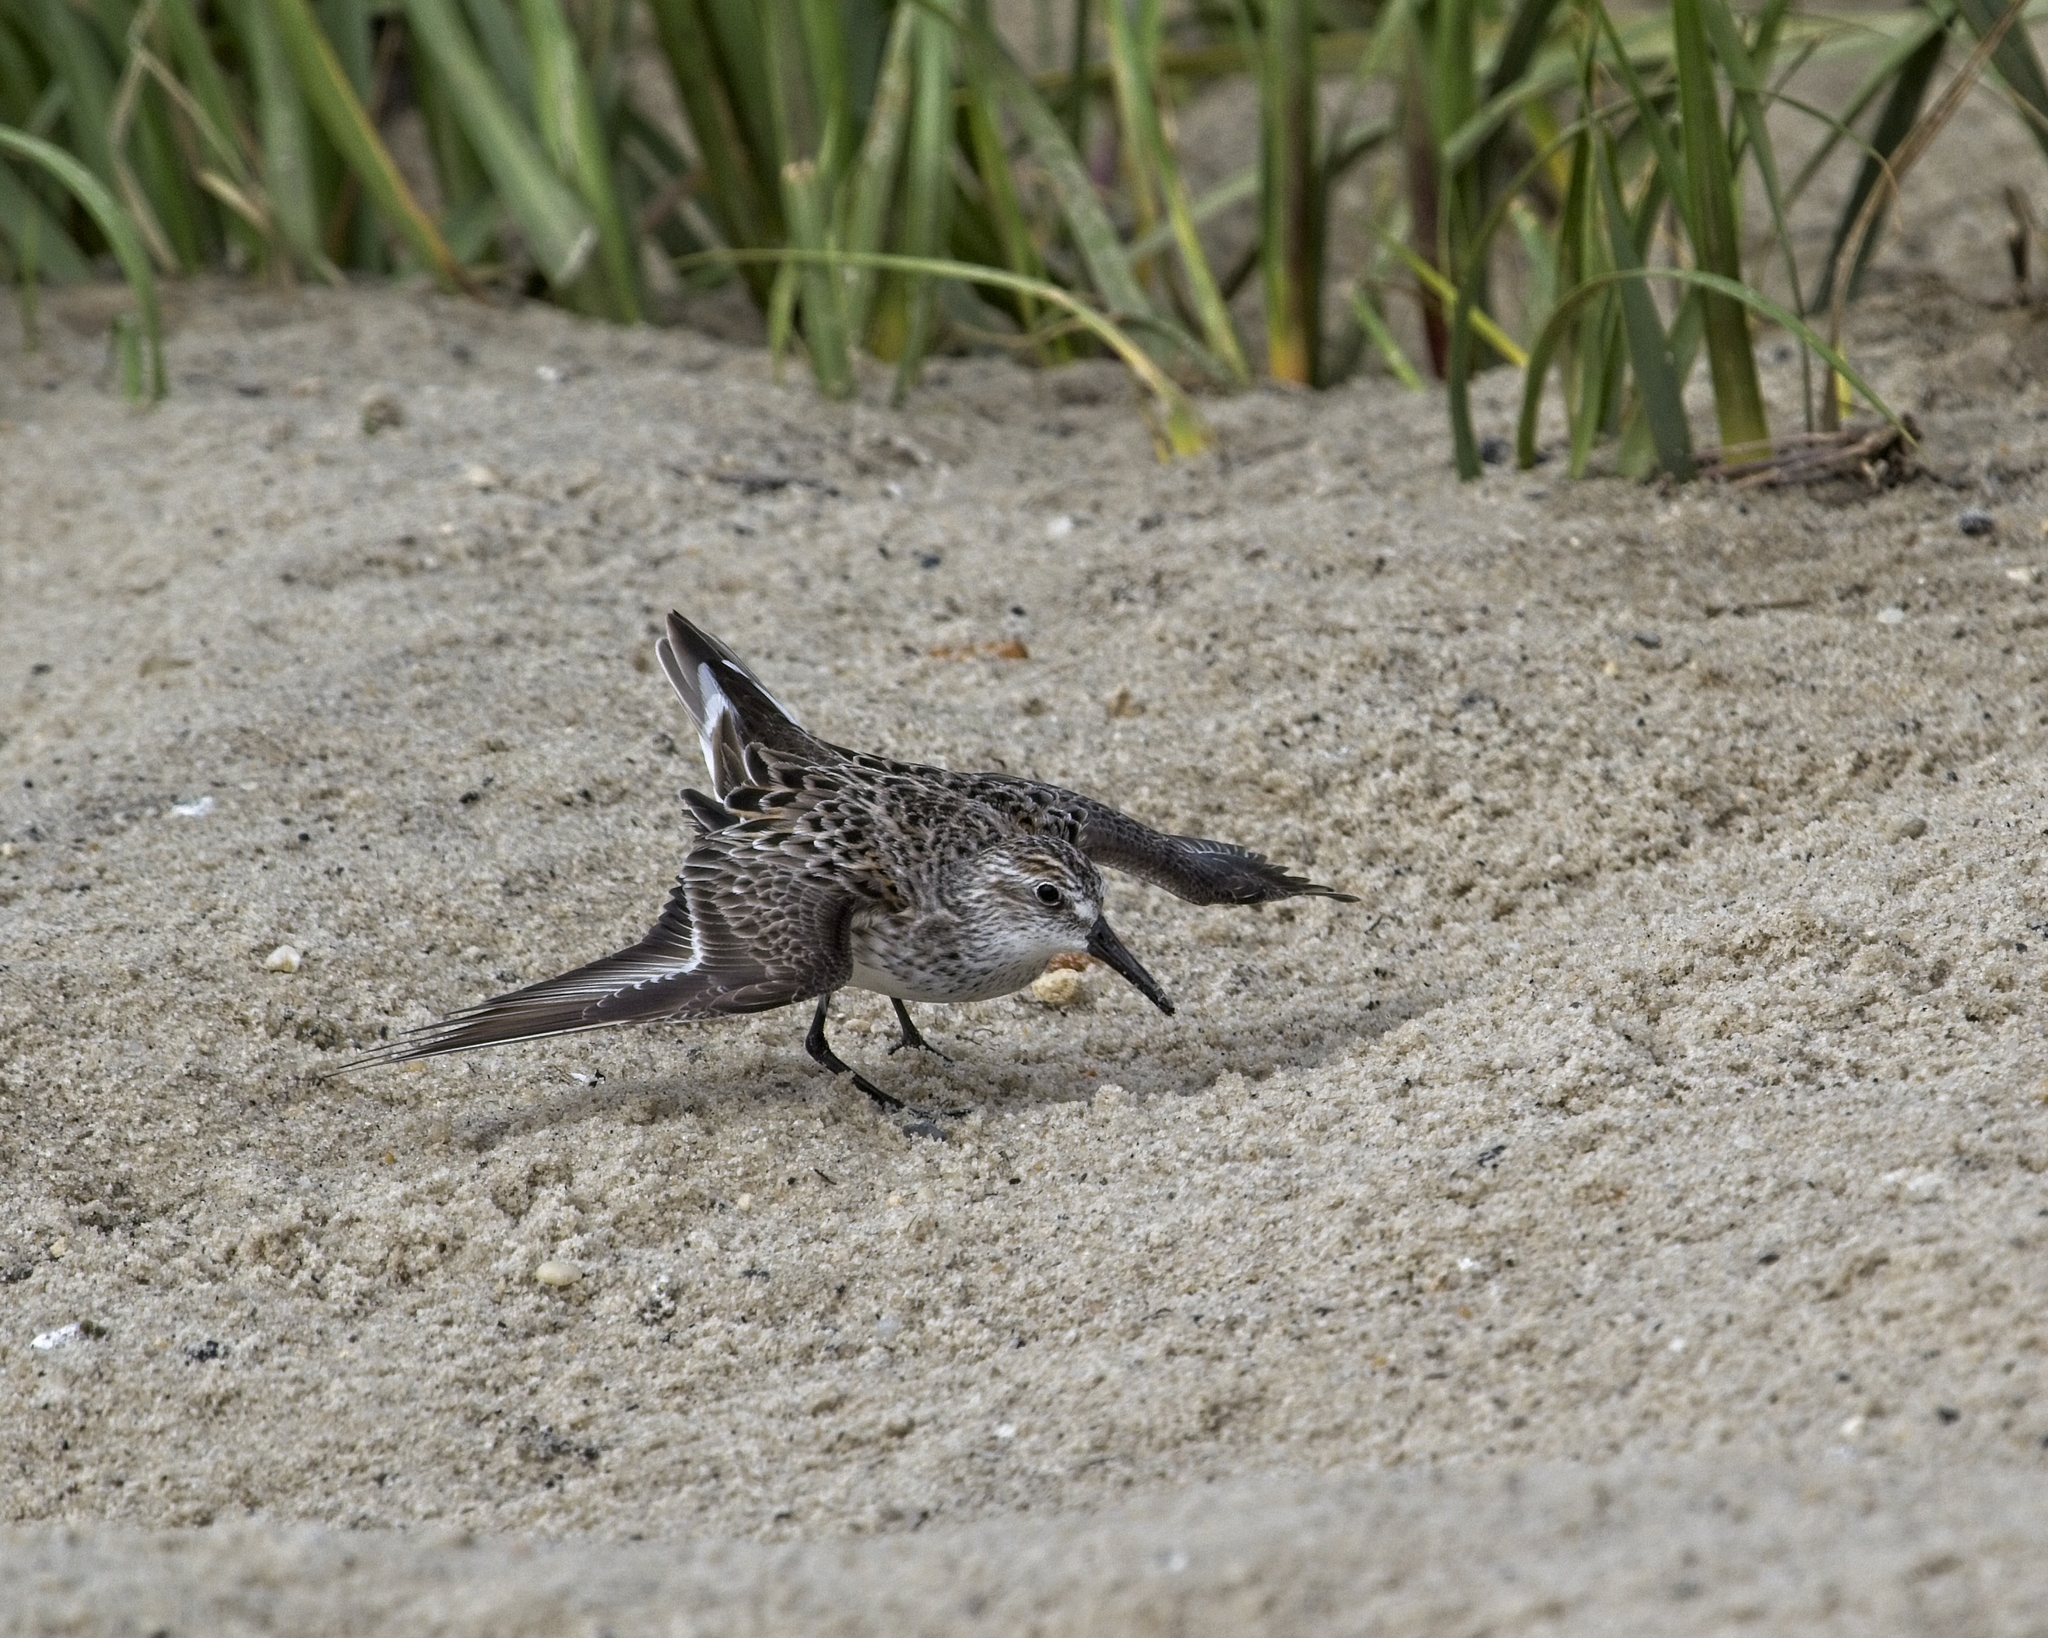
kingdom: Animalia
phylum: Chordata
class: Aves
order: Charadriiformes
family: Scolopacidae
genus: Calidris
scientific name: Calidris pusilla
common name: Semipalmated sandpiper
